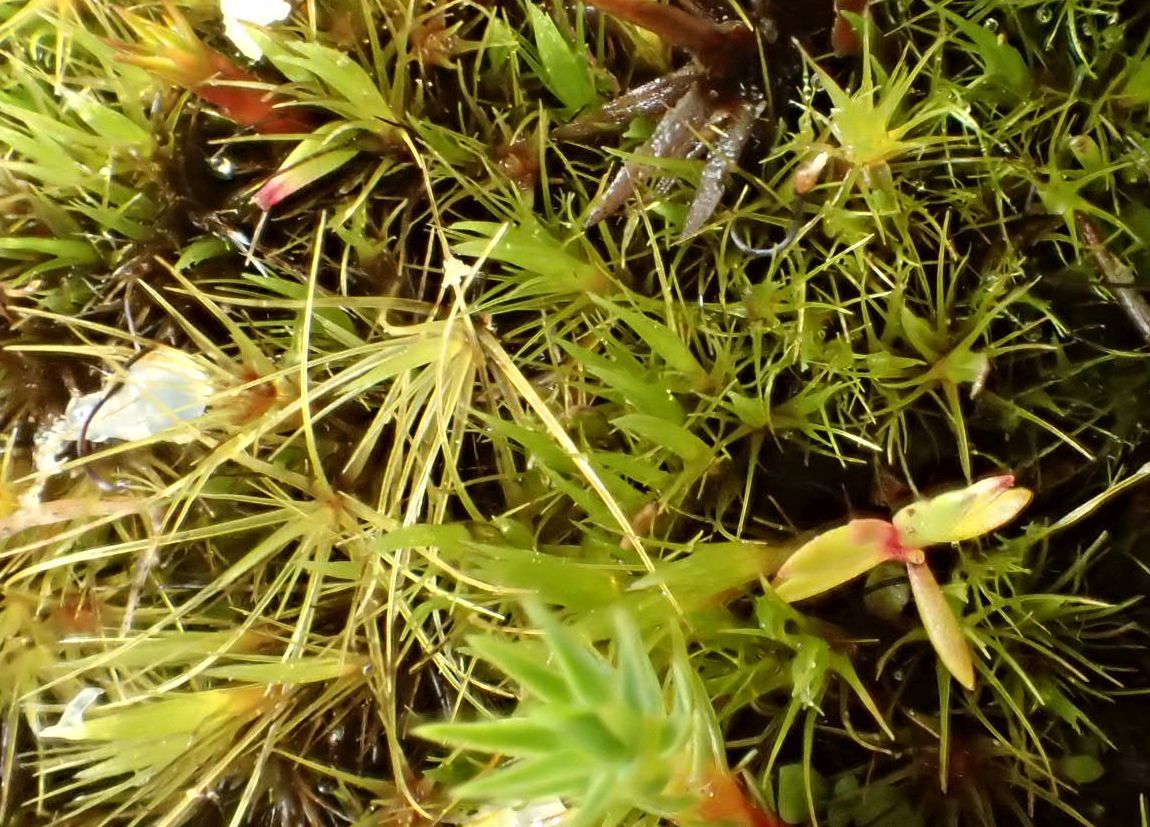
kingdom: Plantae
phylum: Bryophyta
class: Bryopsida
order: Dicranales
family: Leucobryaceae
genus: Campylopus
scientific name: Campylopus clavatus
